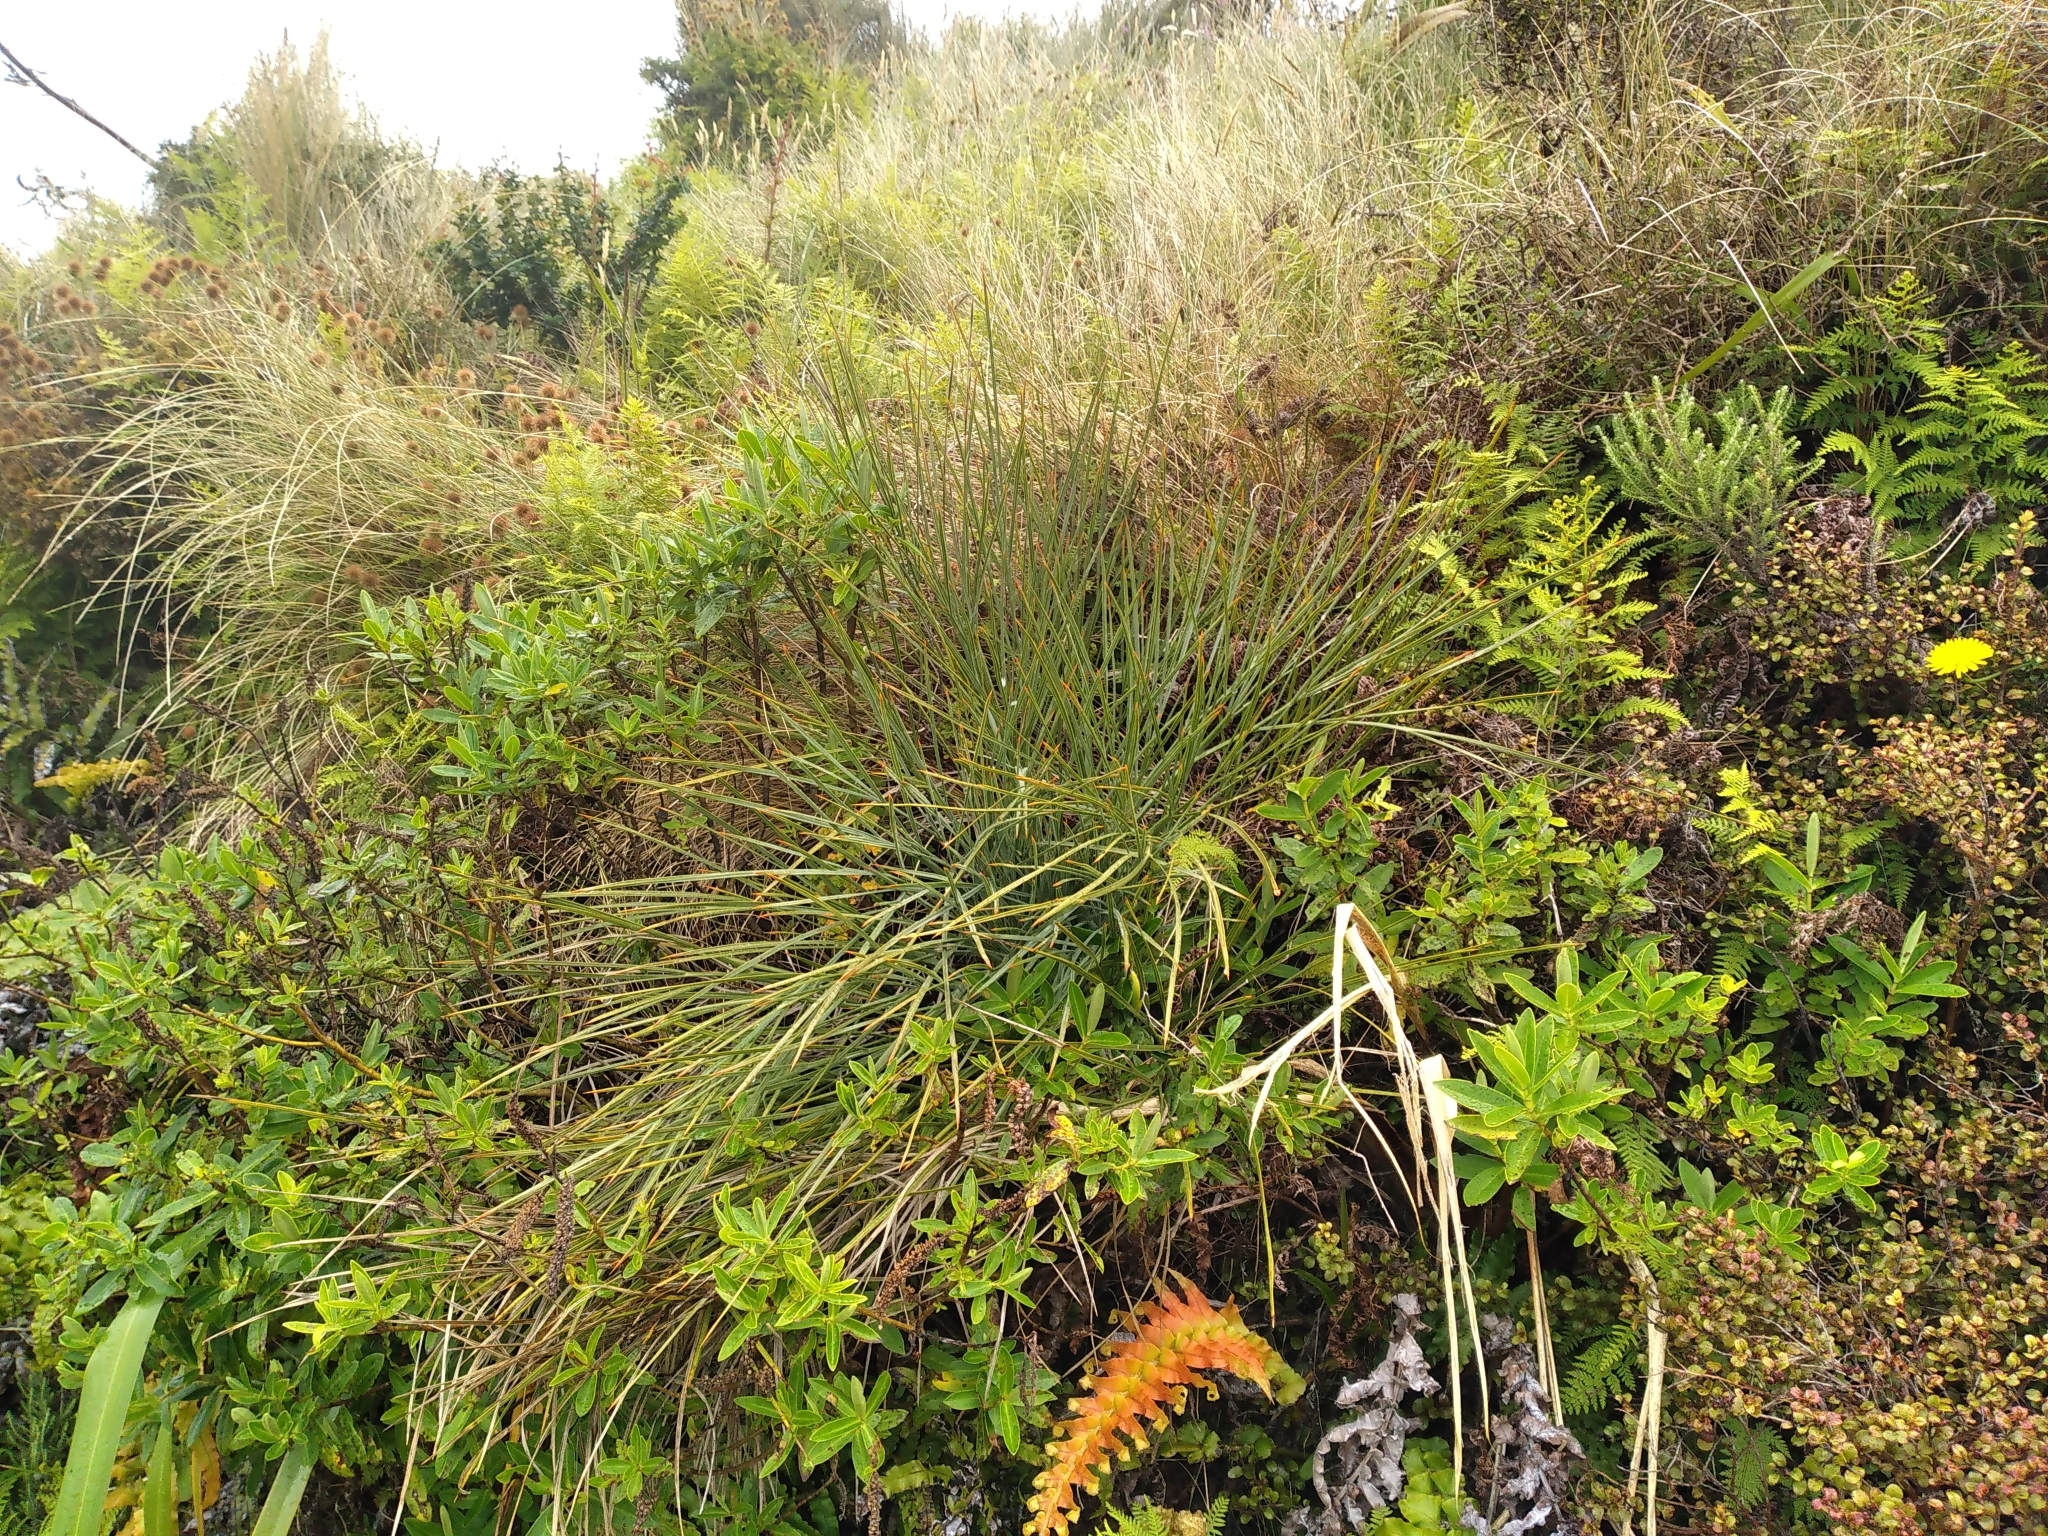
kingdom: Plantae
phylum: Tracheophyta
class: Magnoliopsida
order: Apiales
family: Apiaceae
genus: Aciphylla
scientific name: Aciphylla squarrosa
